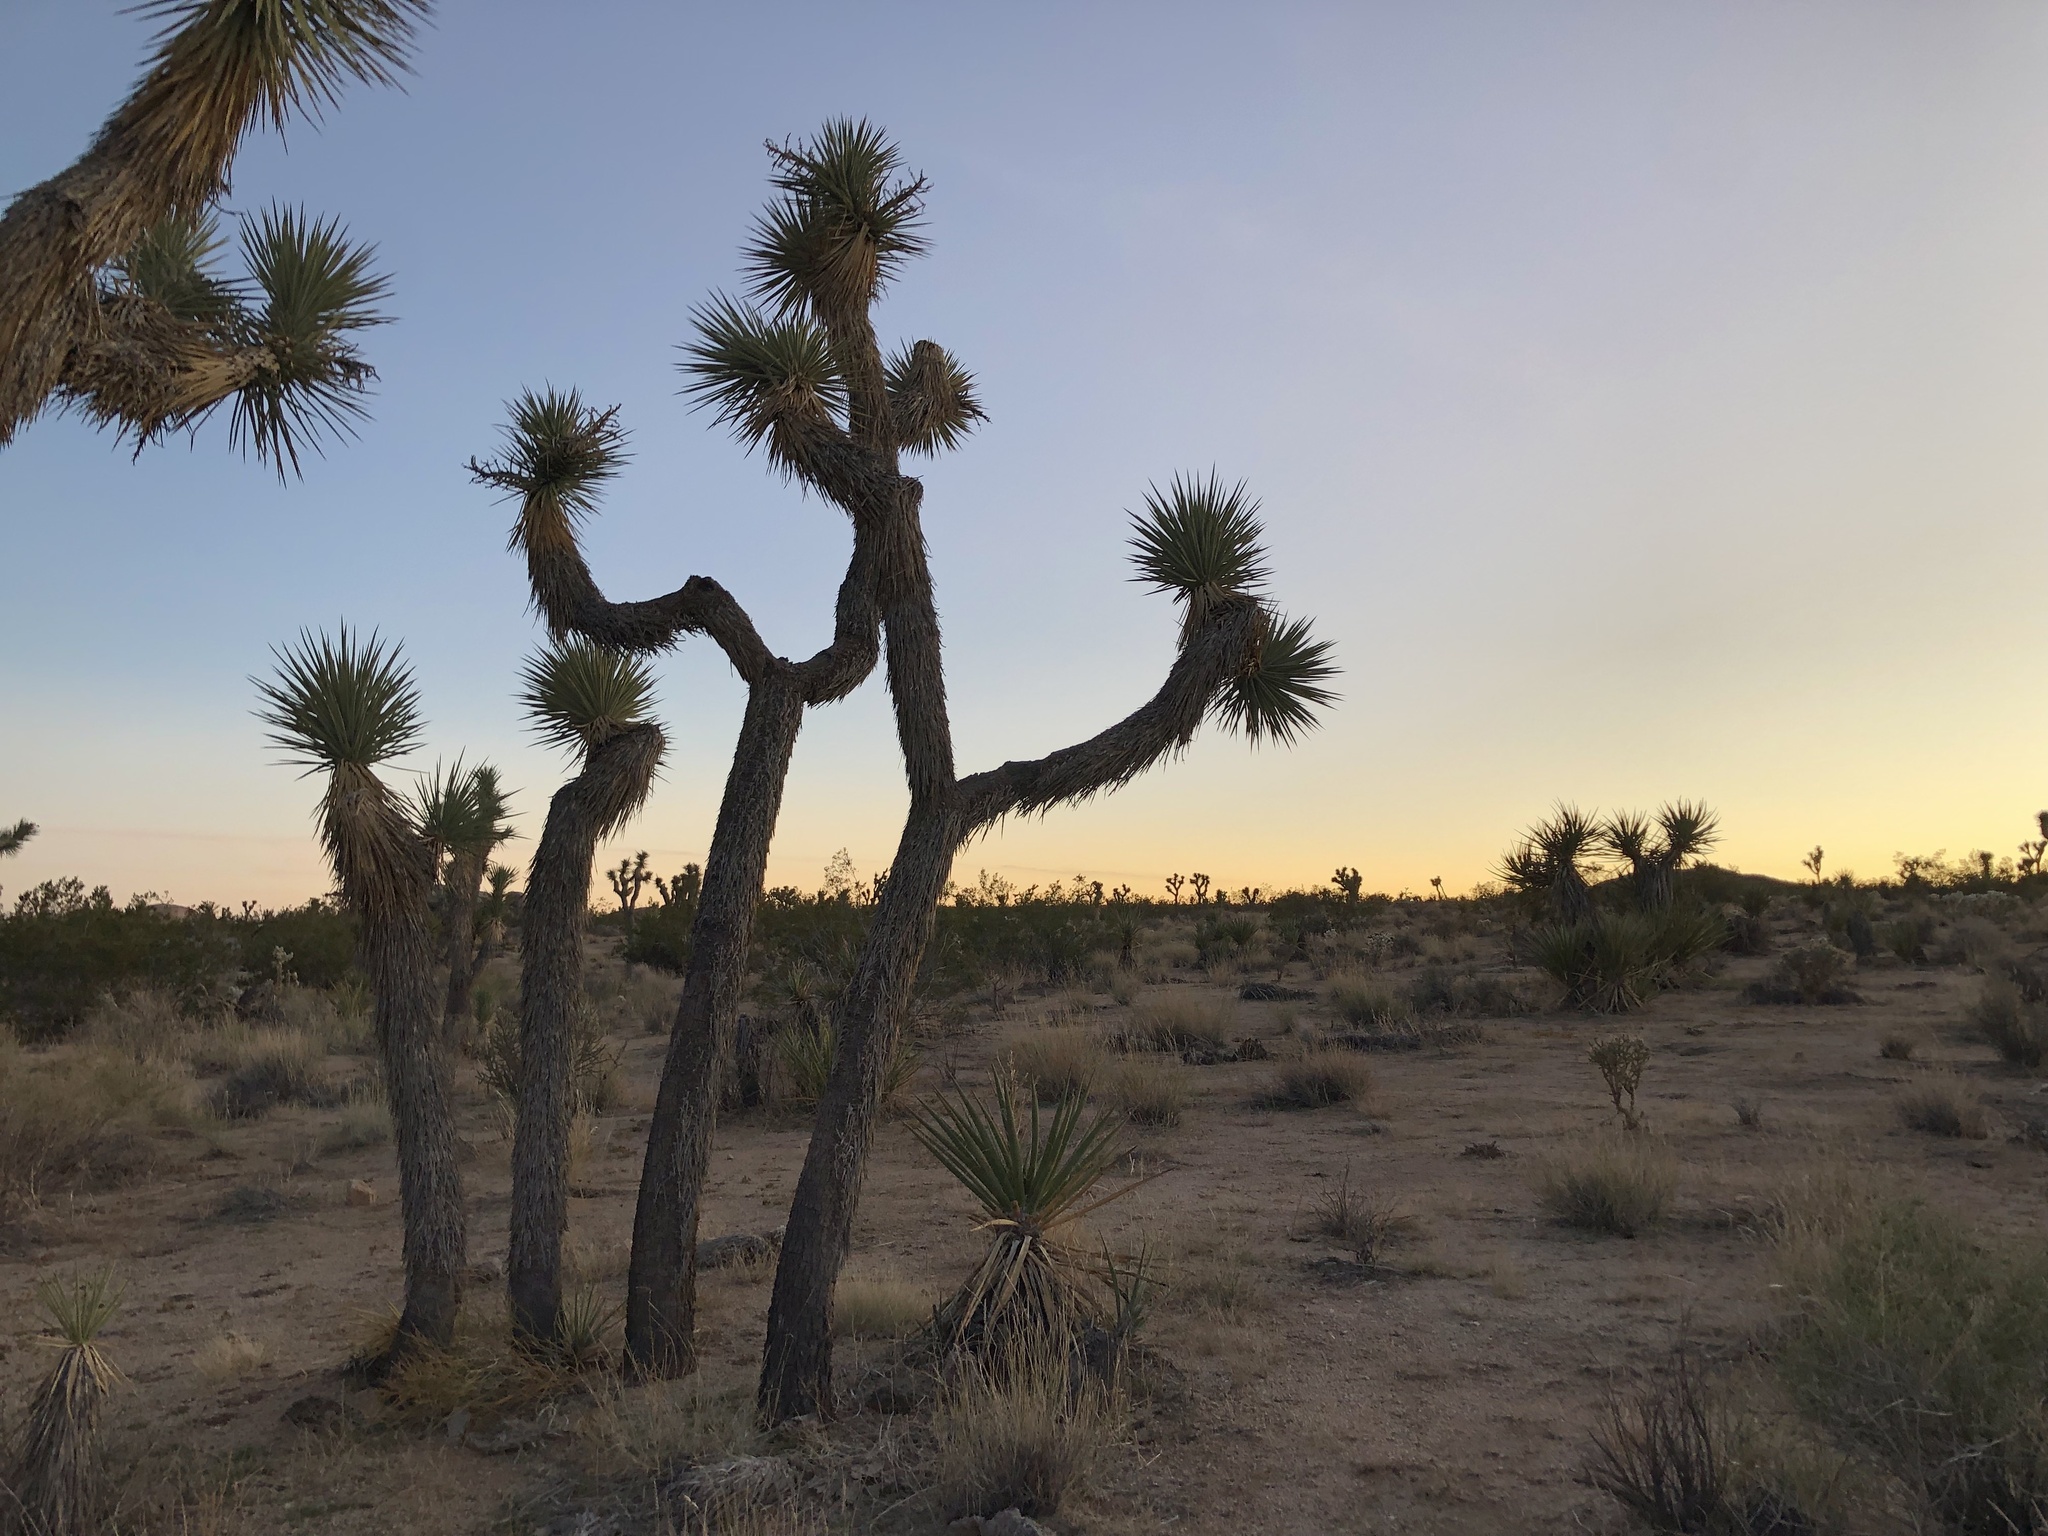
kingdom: Plantae
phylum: Tracheophyta
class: Liliopsida
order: Asparagales
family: Asparagaceae
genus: Yucca
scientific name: Yucca brevifolia
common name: Joshua tree
